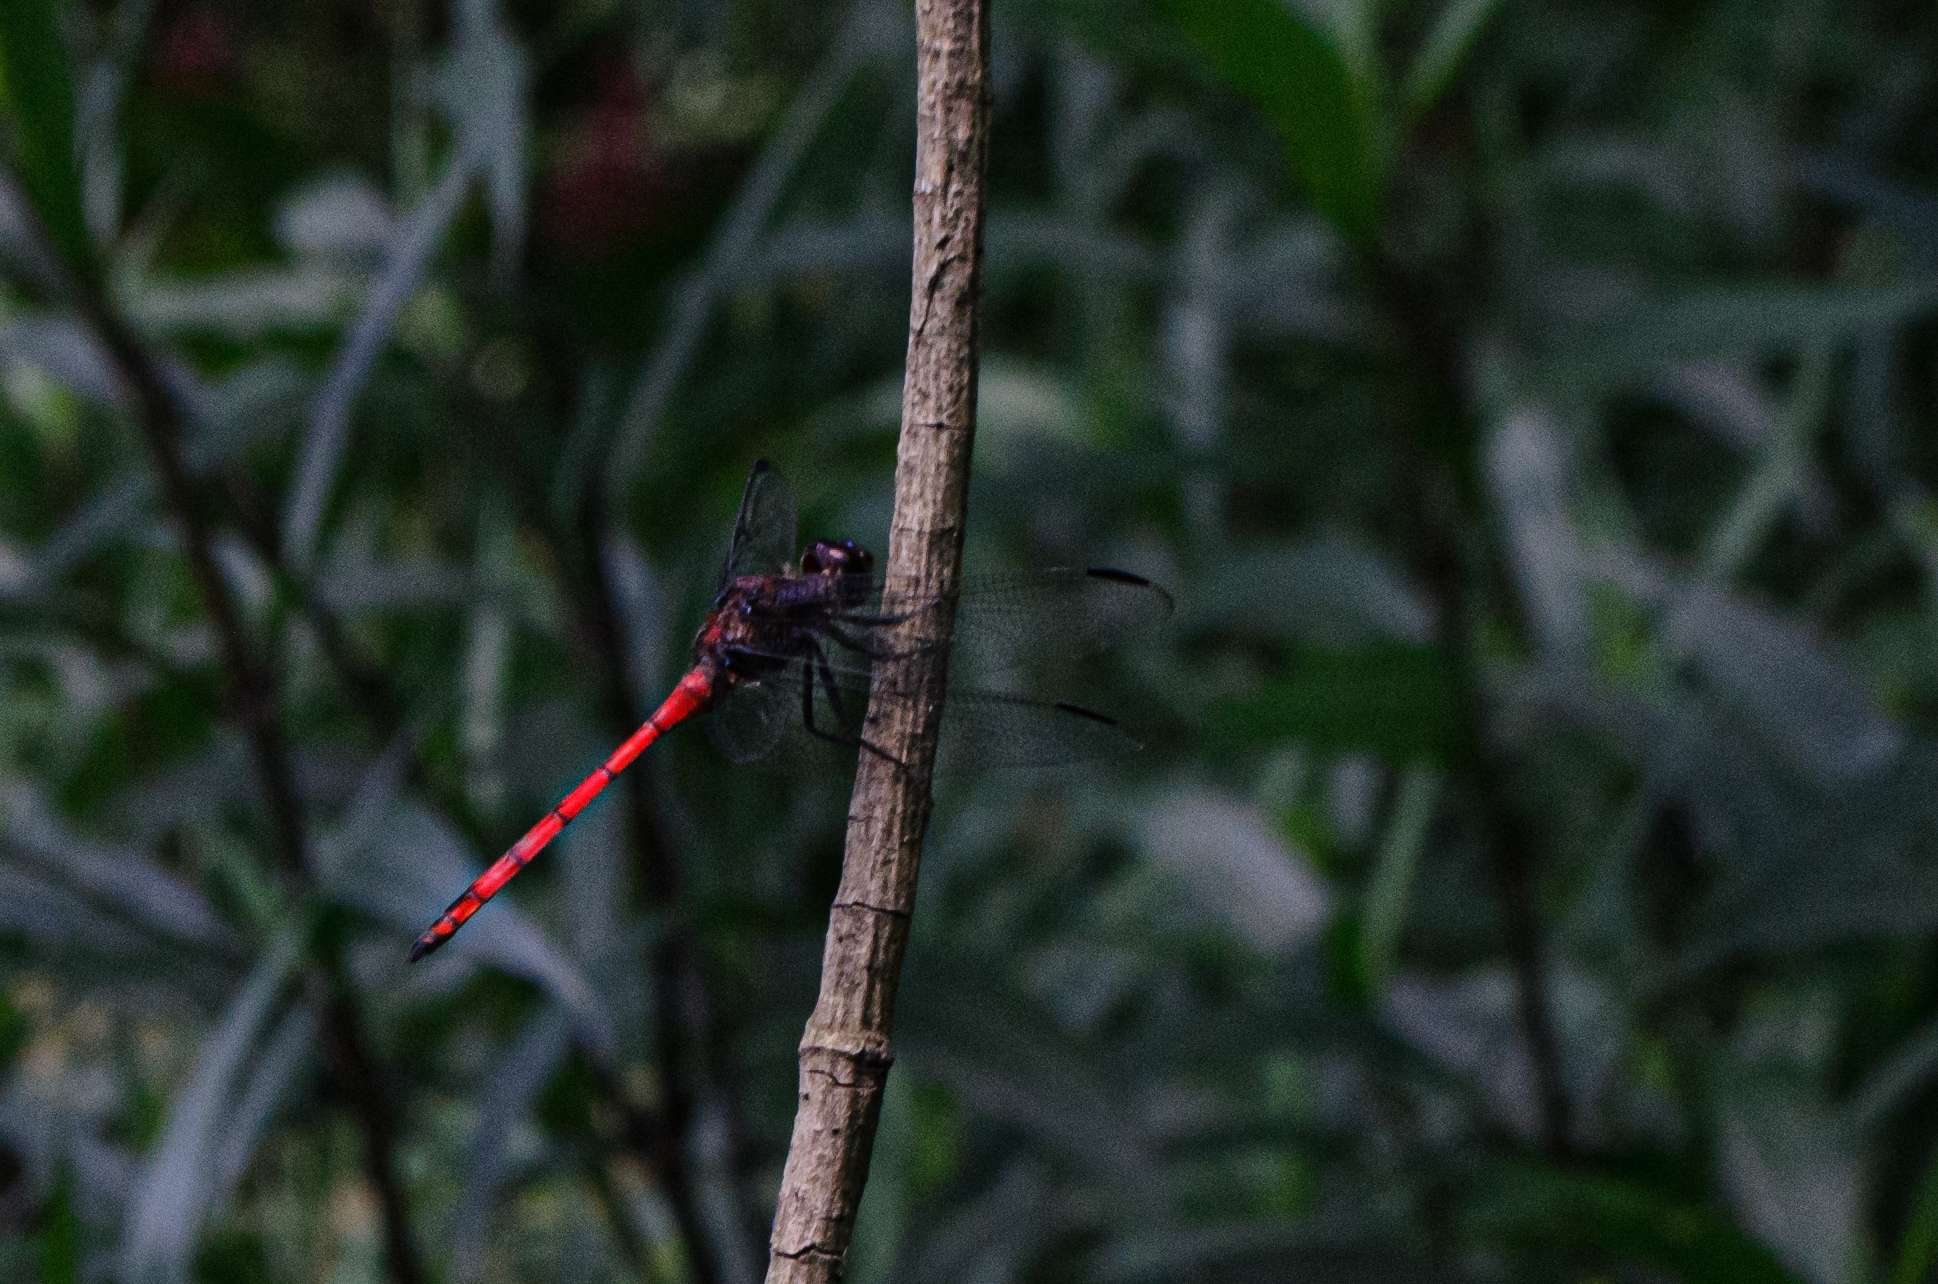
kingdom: Animalia
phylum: Arthropoda
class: Insecta
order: Odonata
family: Libellulidae
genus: Orthemis
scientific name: Orthemis ambinigra
